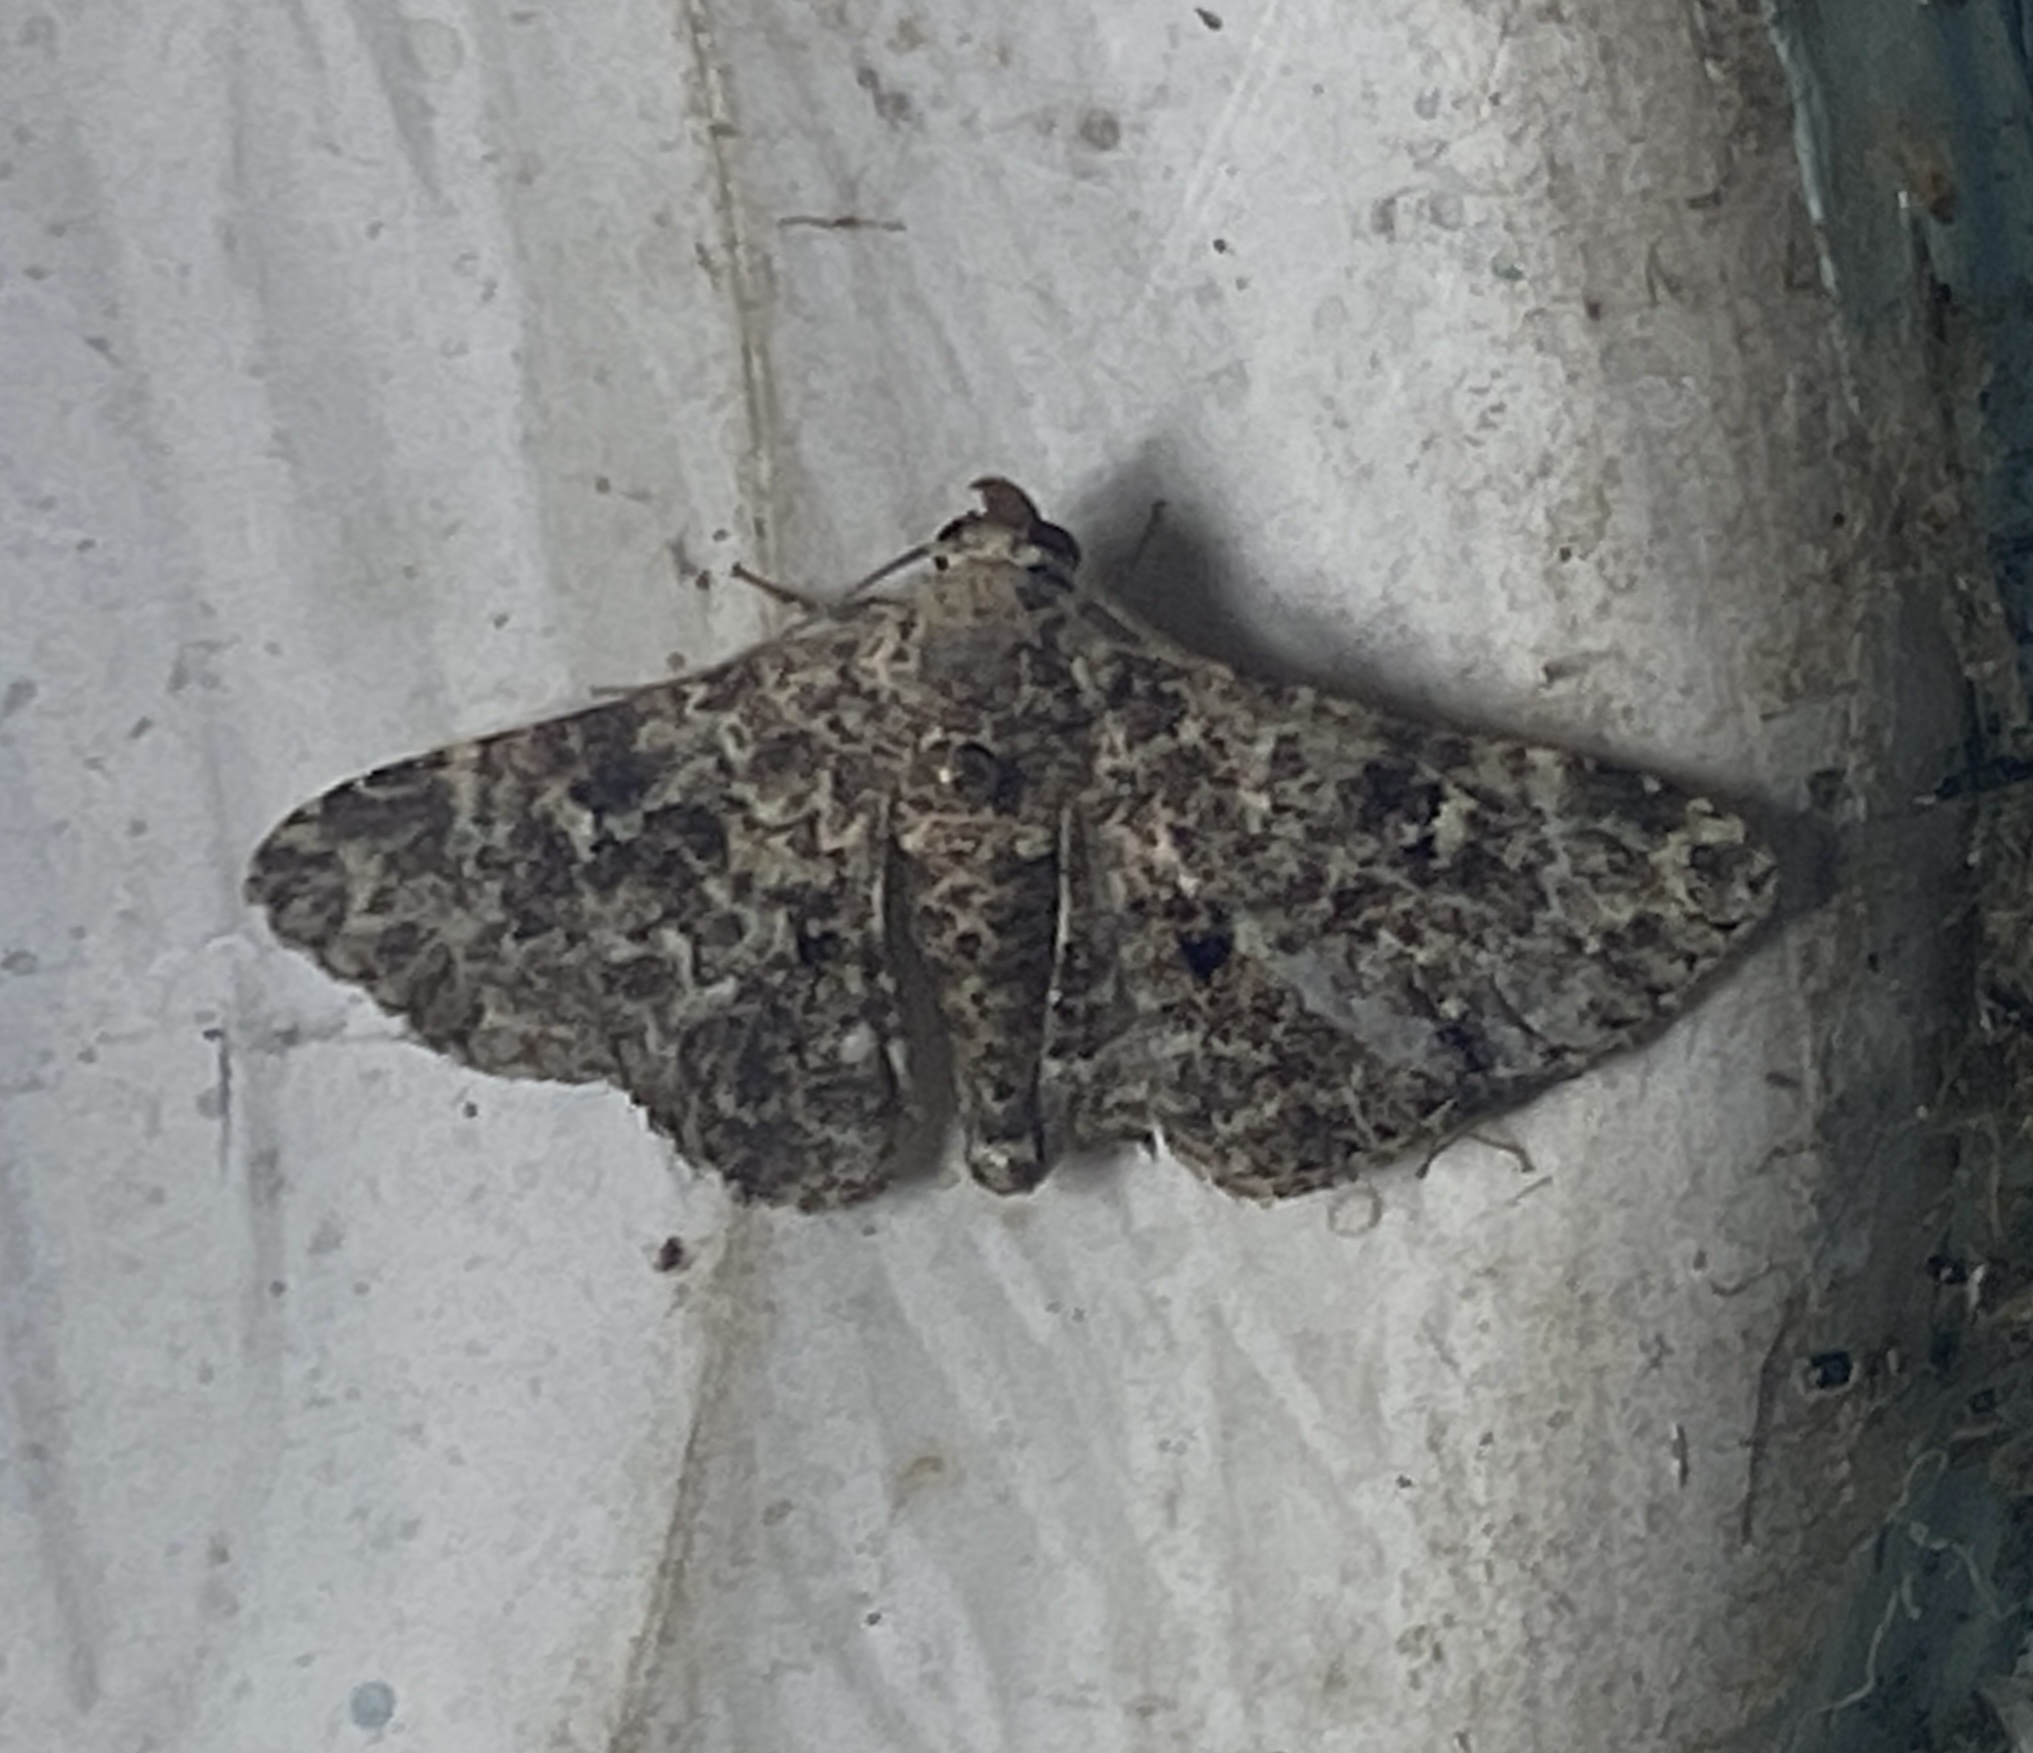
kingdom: Animalia
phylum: Arthropoda
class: Insecta
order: Lepidoptera
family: Erebidae
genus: Metalectra
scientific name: Metalectra piperata
